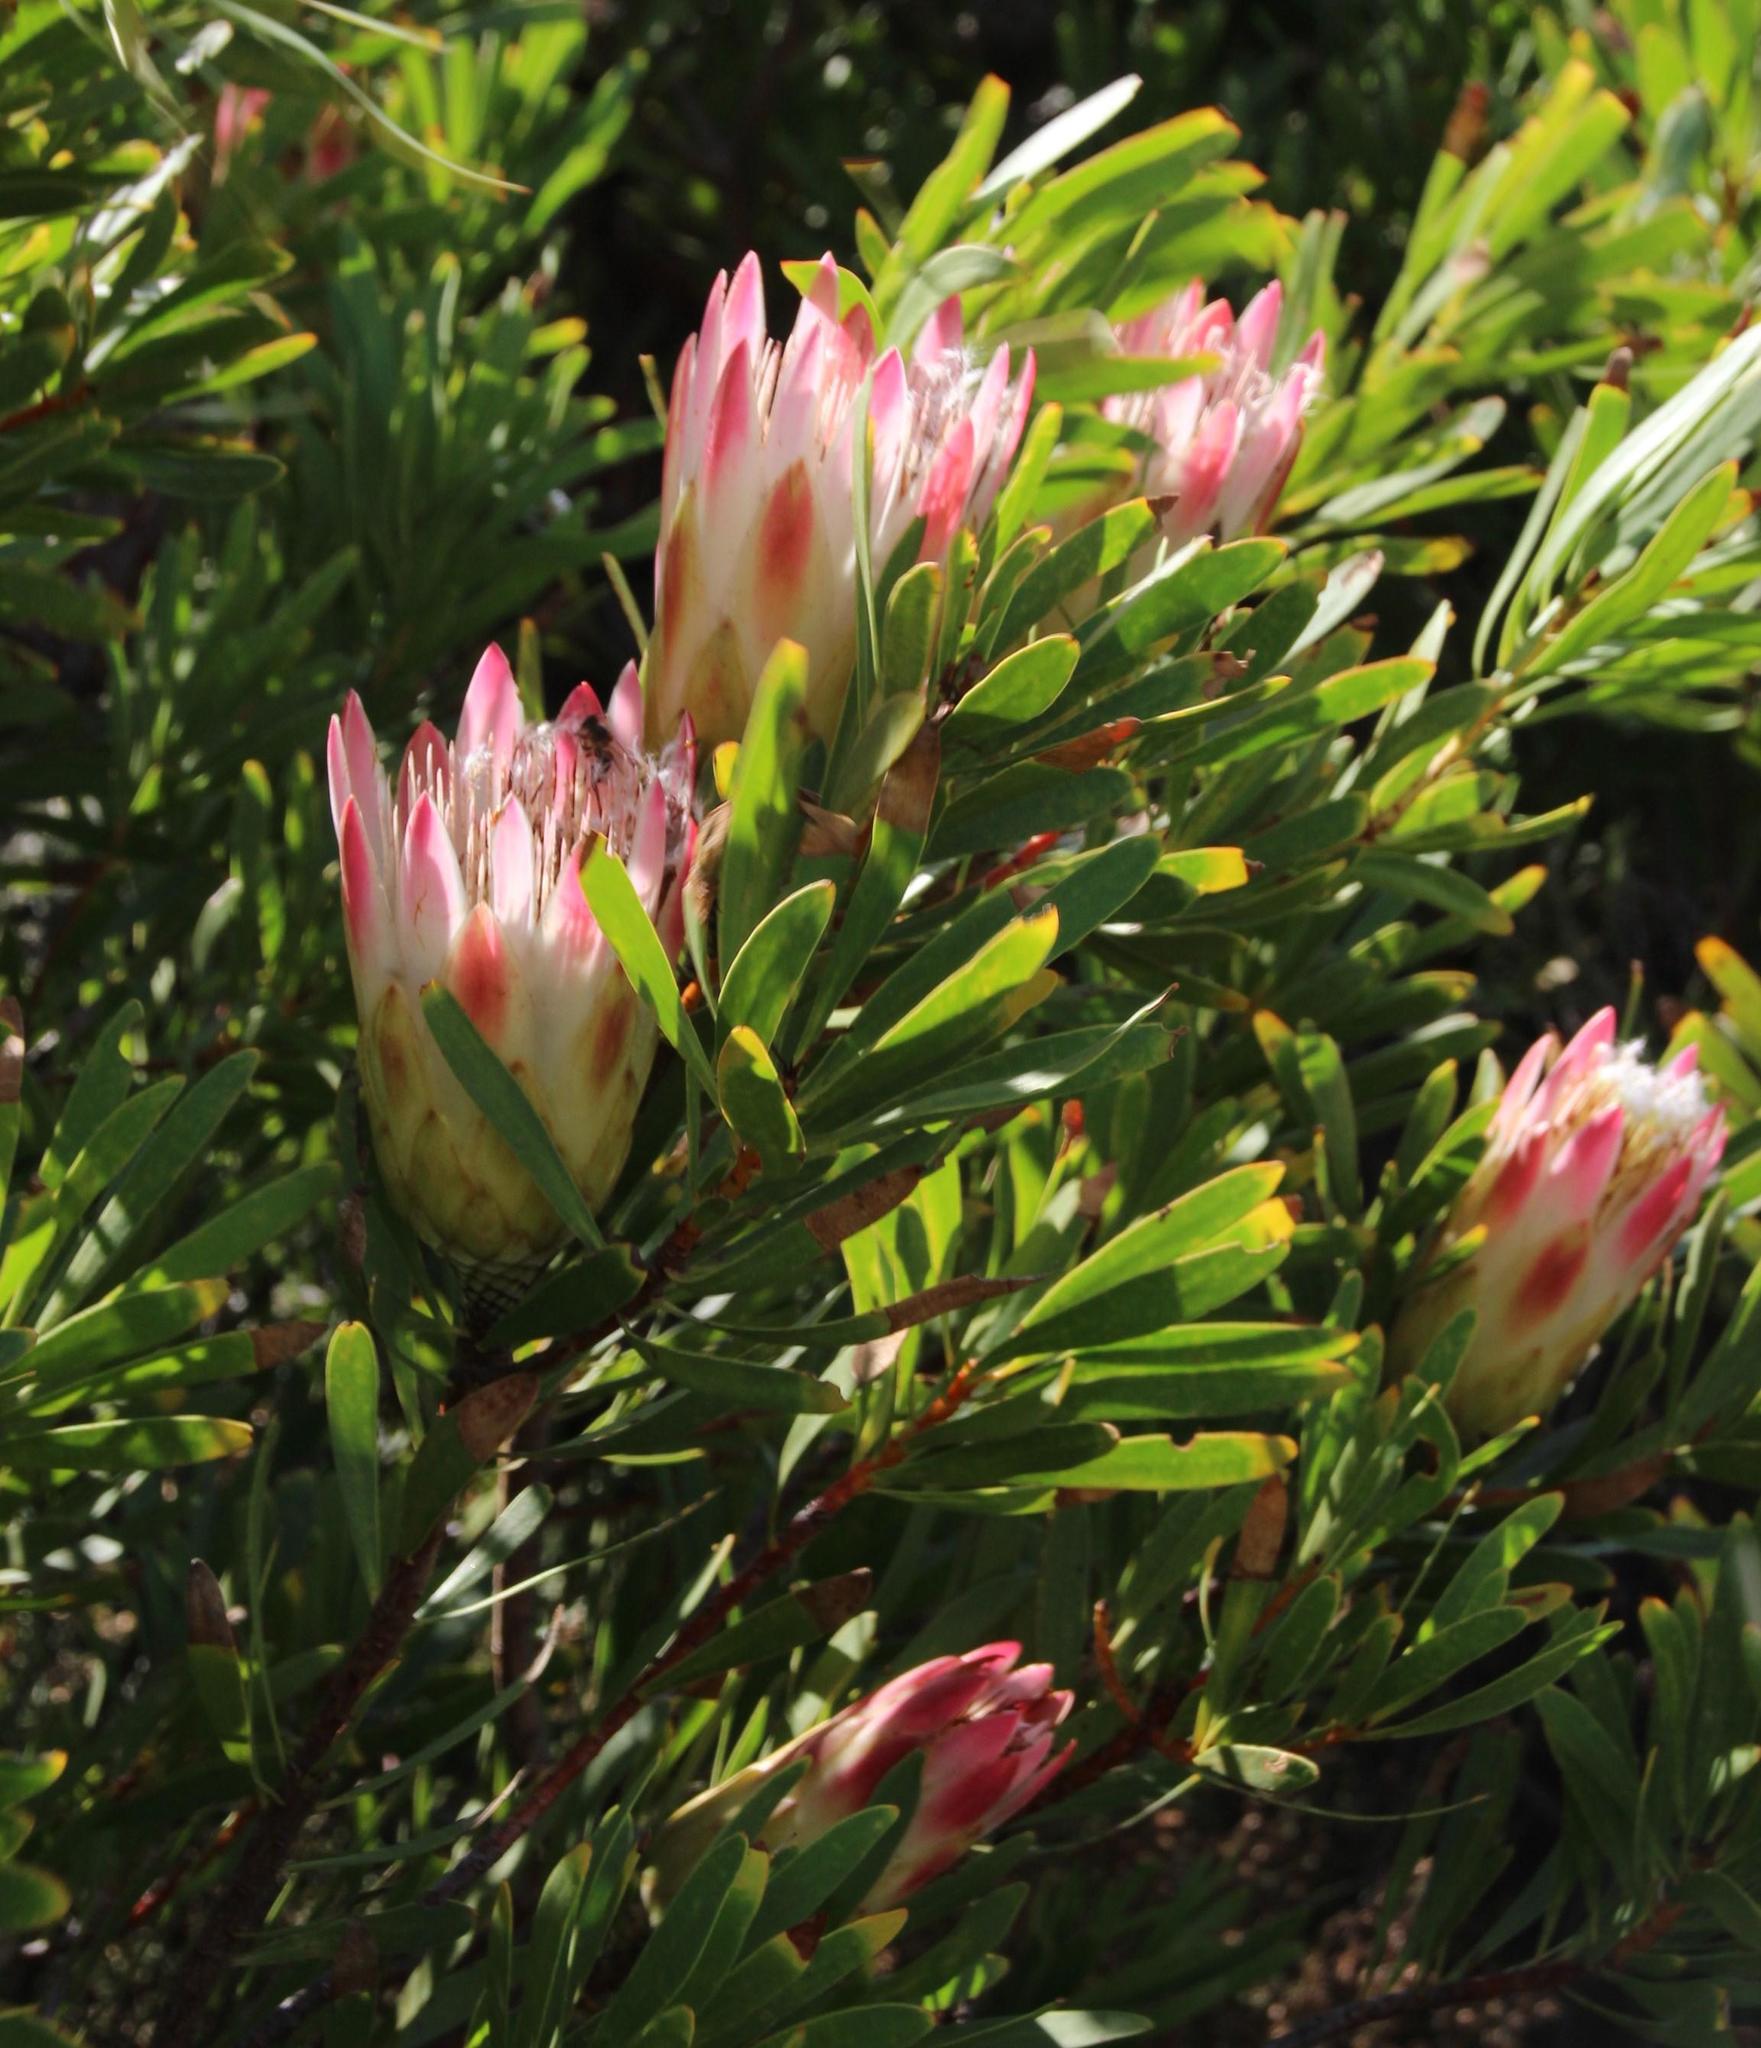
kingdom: Plantae
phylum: Tracheophyta
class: Magnoliopsida
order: Proteales
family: Proteaceae
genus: Protea
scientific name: Protea repens
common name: Sugarbush
